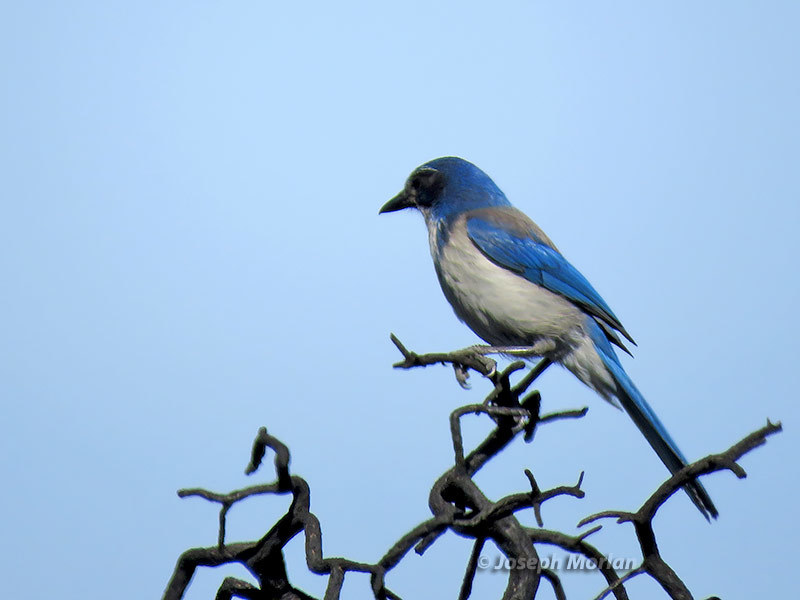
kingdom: Animalia
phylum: Chordata
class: Aves
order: Passeriformes
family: Corvidae
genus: Aphelocoma
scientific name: Aphelocoma californica
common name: California scrub-jay
